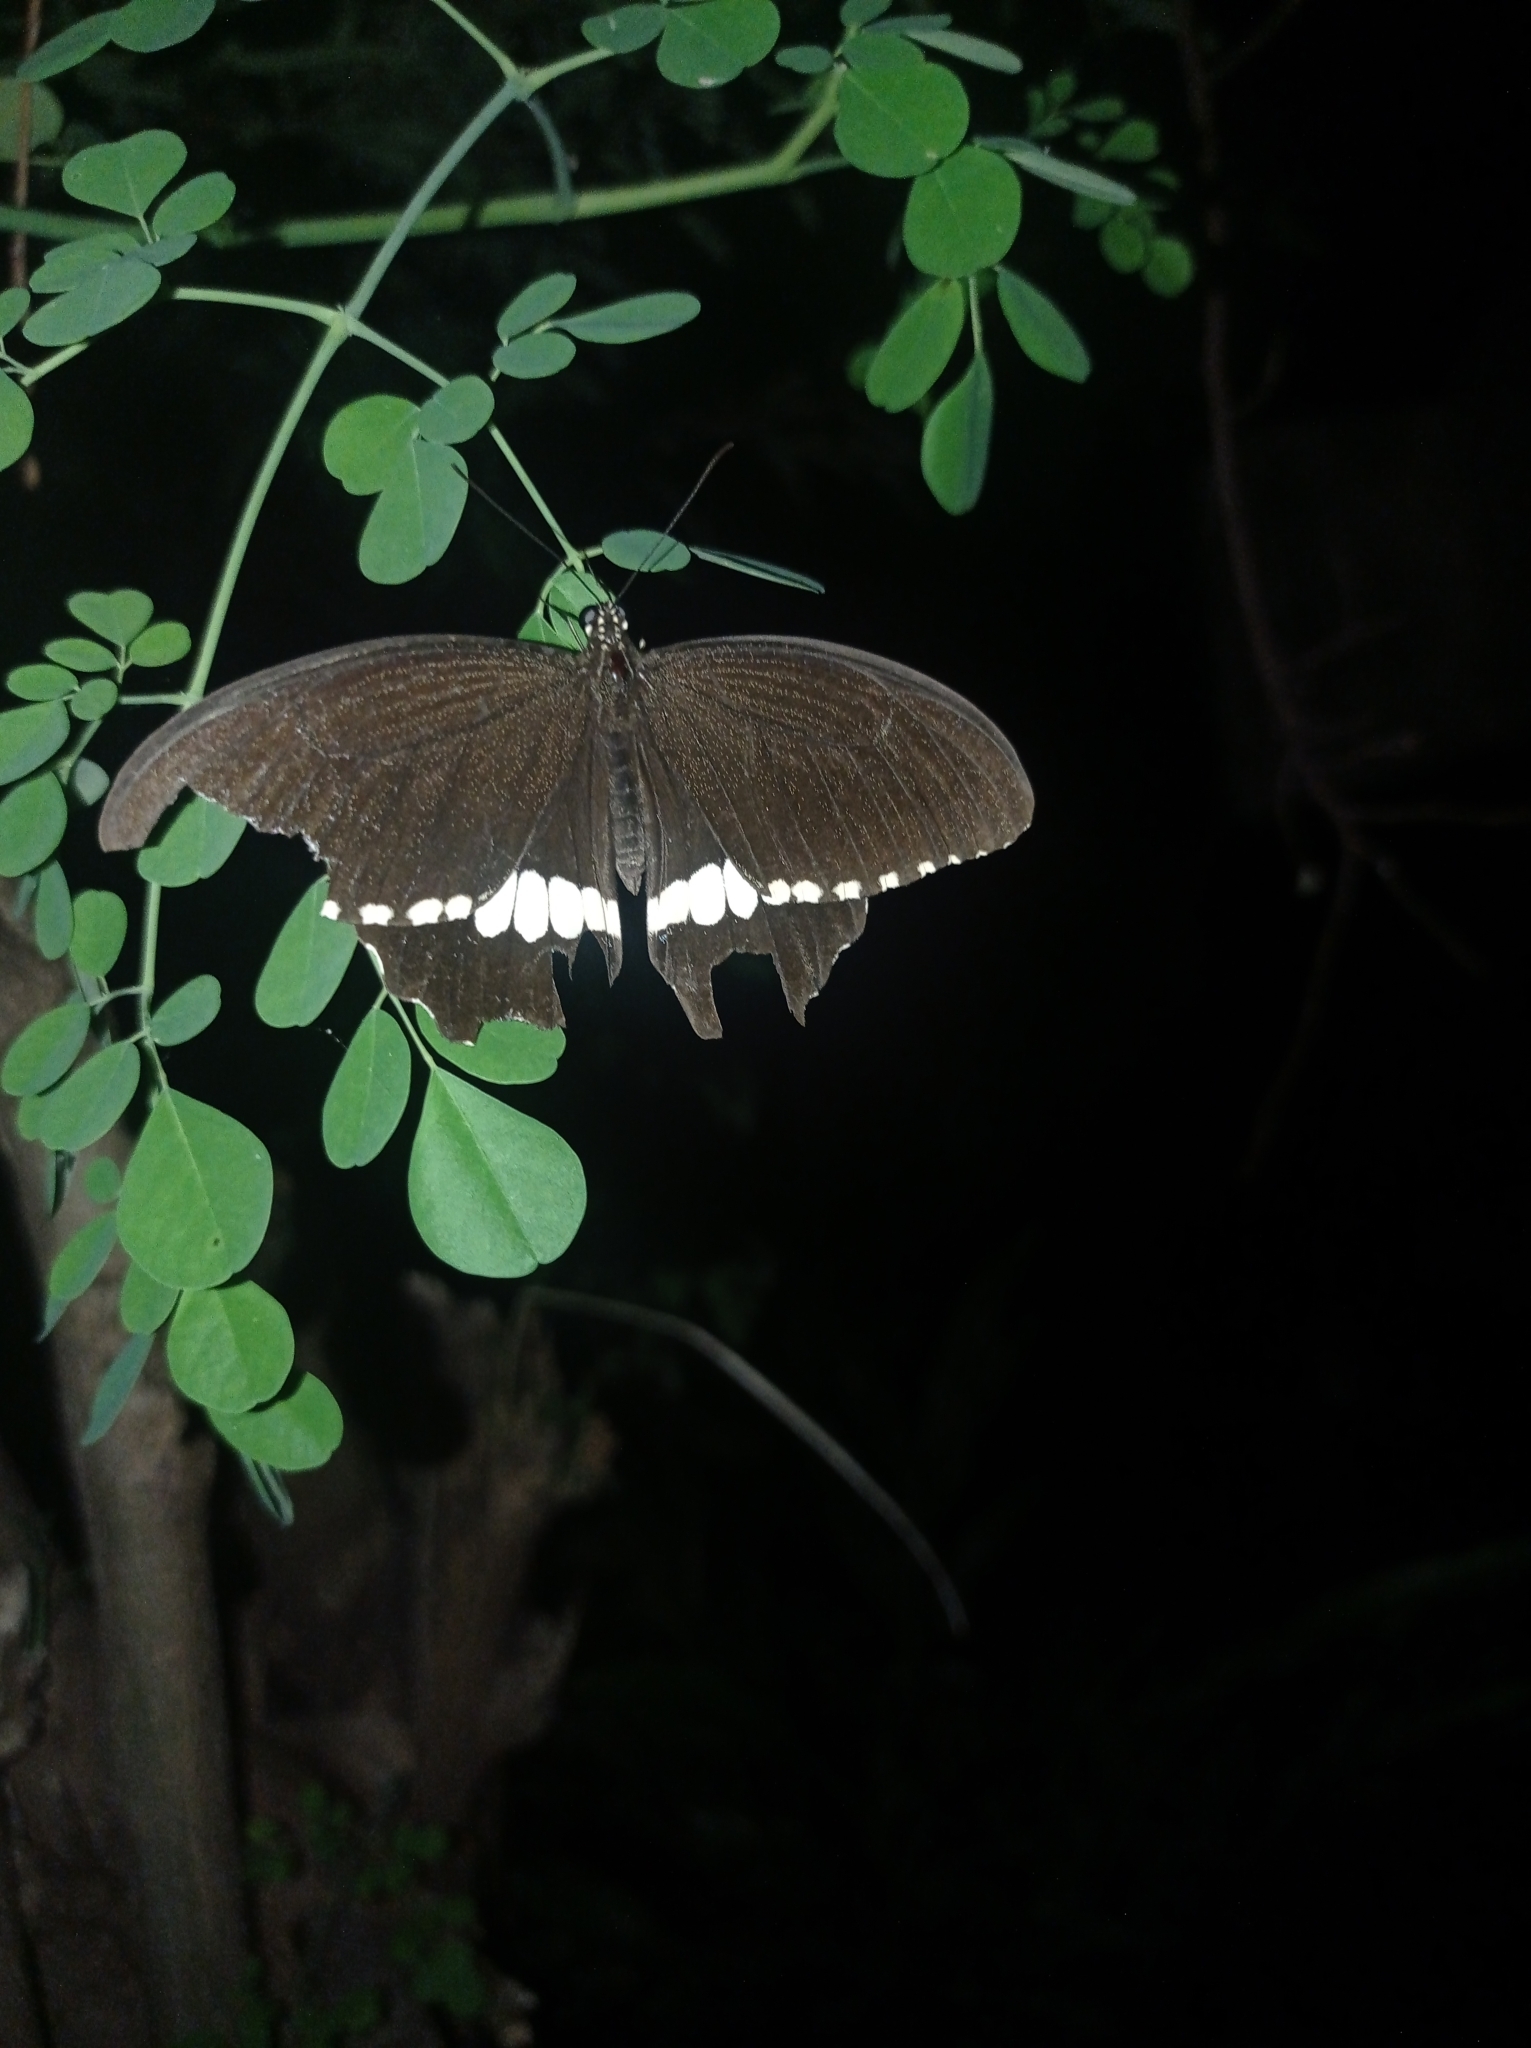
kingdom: Animalia
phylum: Arthropoda
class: Insecta
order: Lepidoptera
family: Papilionidae
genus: Papilio
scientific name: Papilio janaka
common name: Himalayan tailed redbreast
